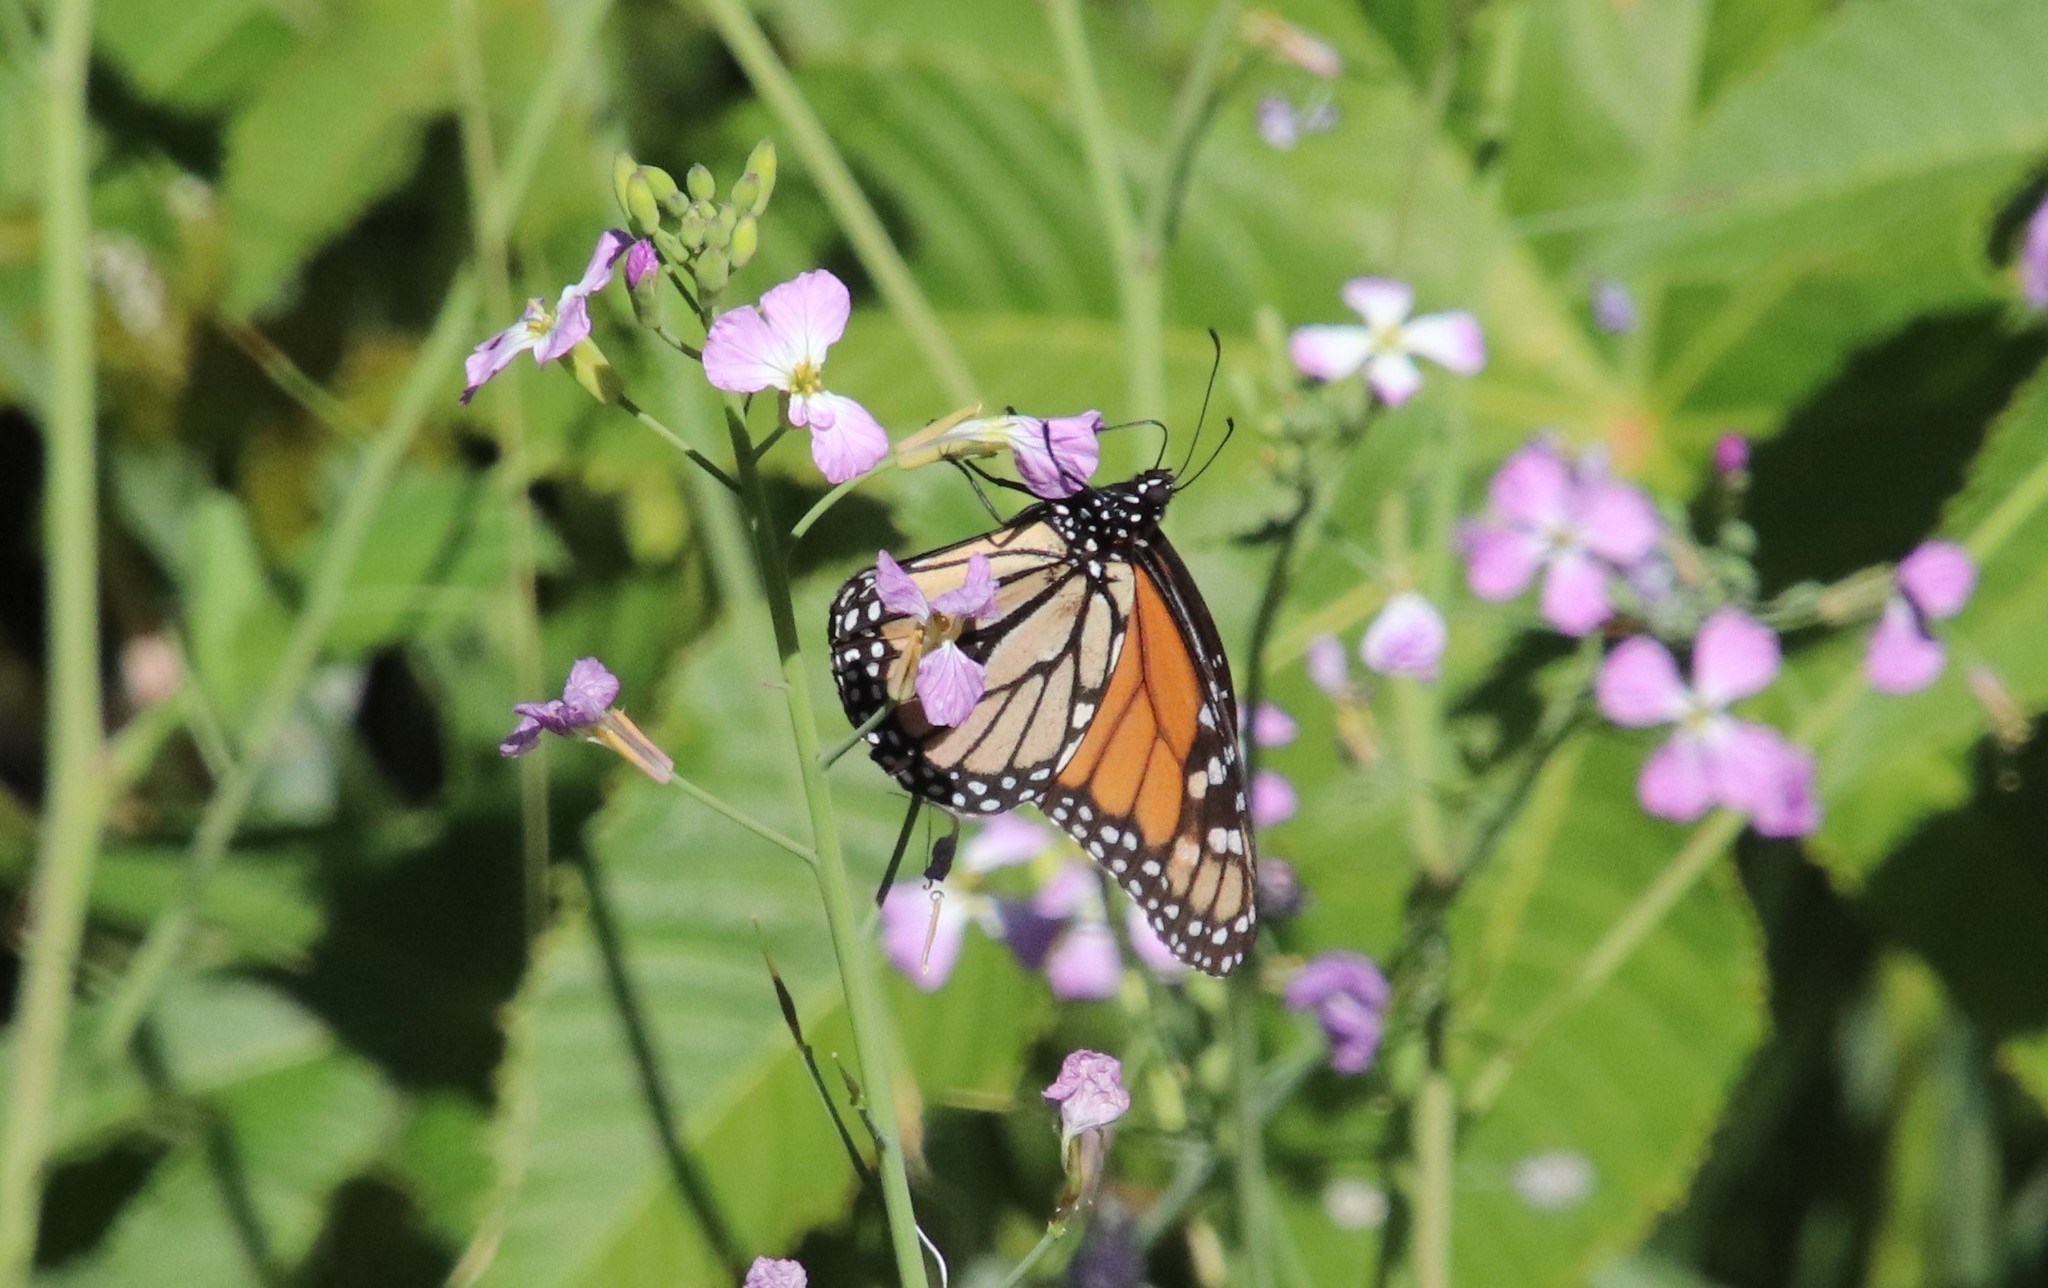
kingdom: Animalia
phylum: Arthropoda
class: Insecta
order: Lepidoptera
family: Nymphalidae
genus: Danaus
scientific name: Danaus plexippus
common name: Monarch
